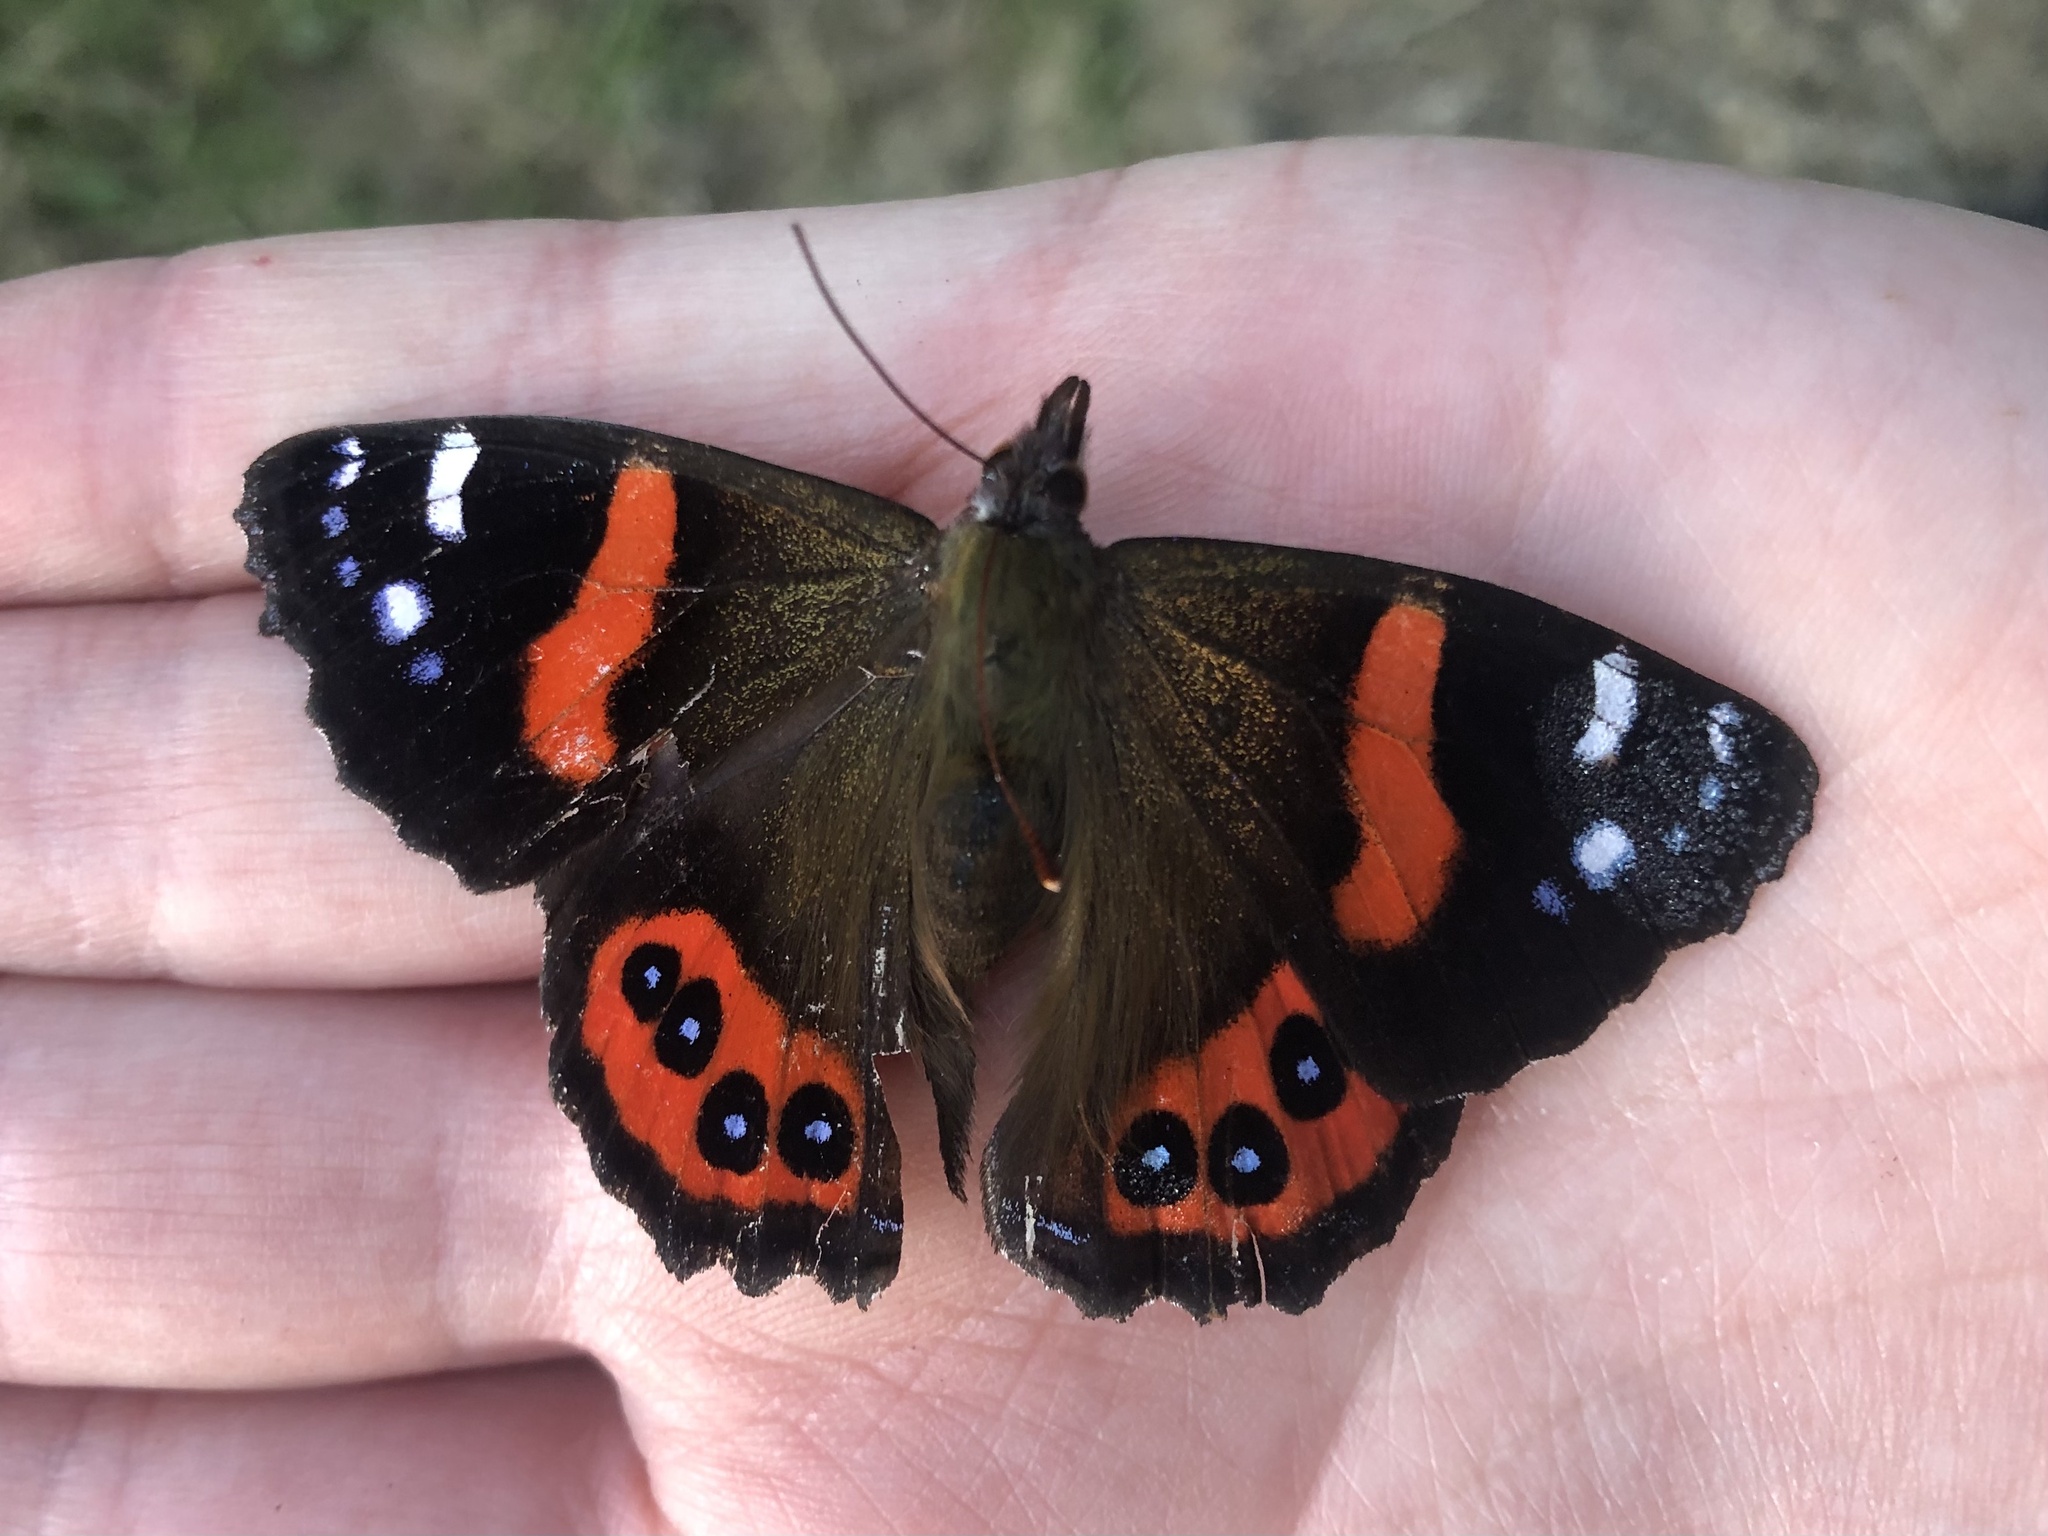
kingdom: Animalia
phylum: Arthropoda
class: Insecta
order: Lepidoptera
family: Nymphalidae
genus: Vanessa
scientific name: Vanessa gonerilla
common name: New zealand red admiral
